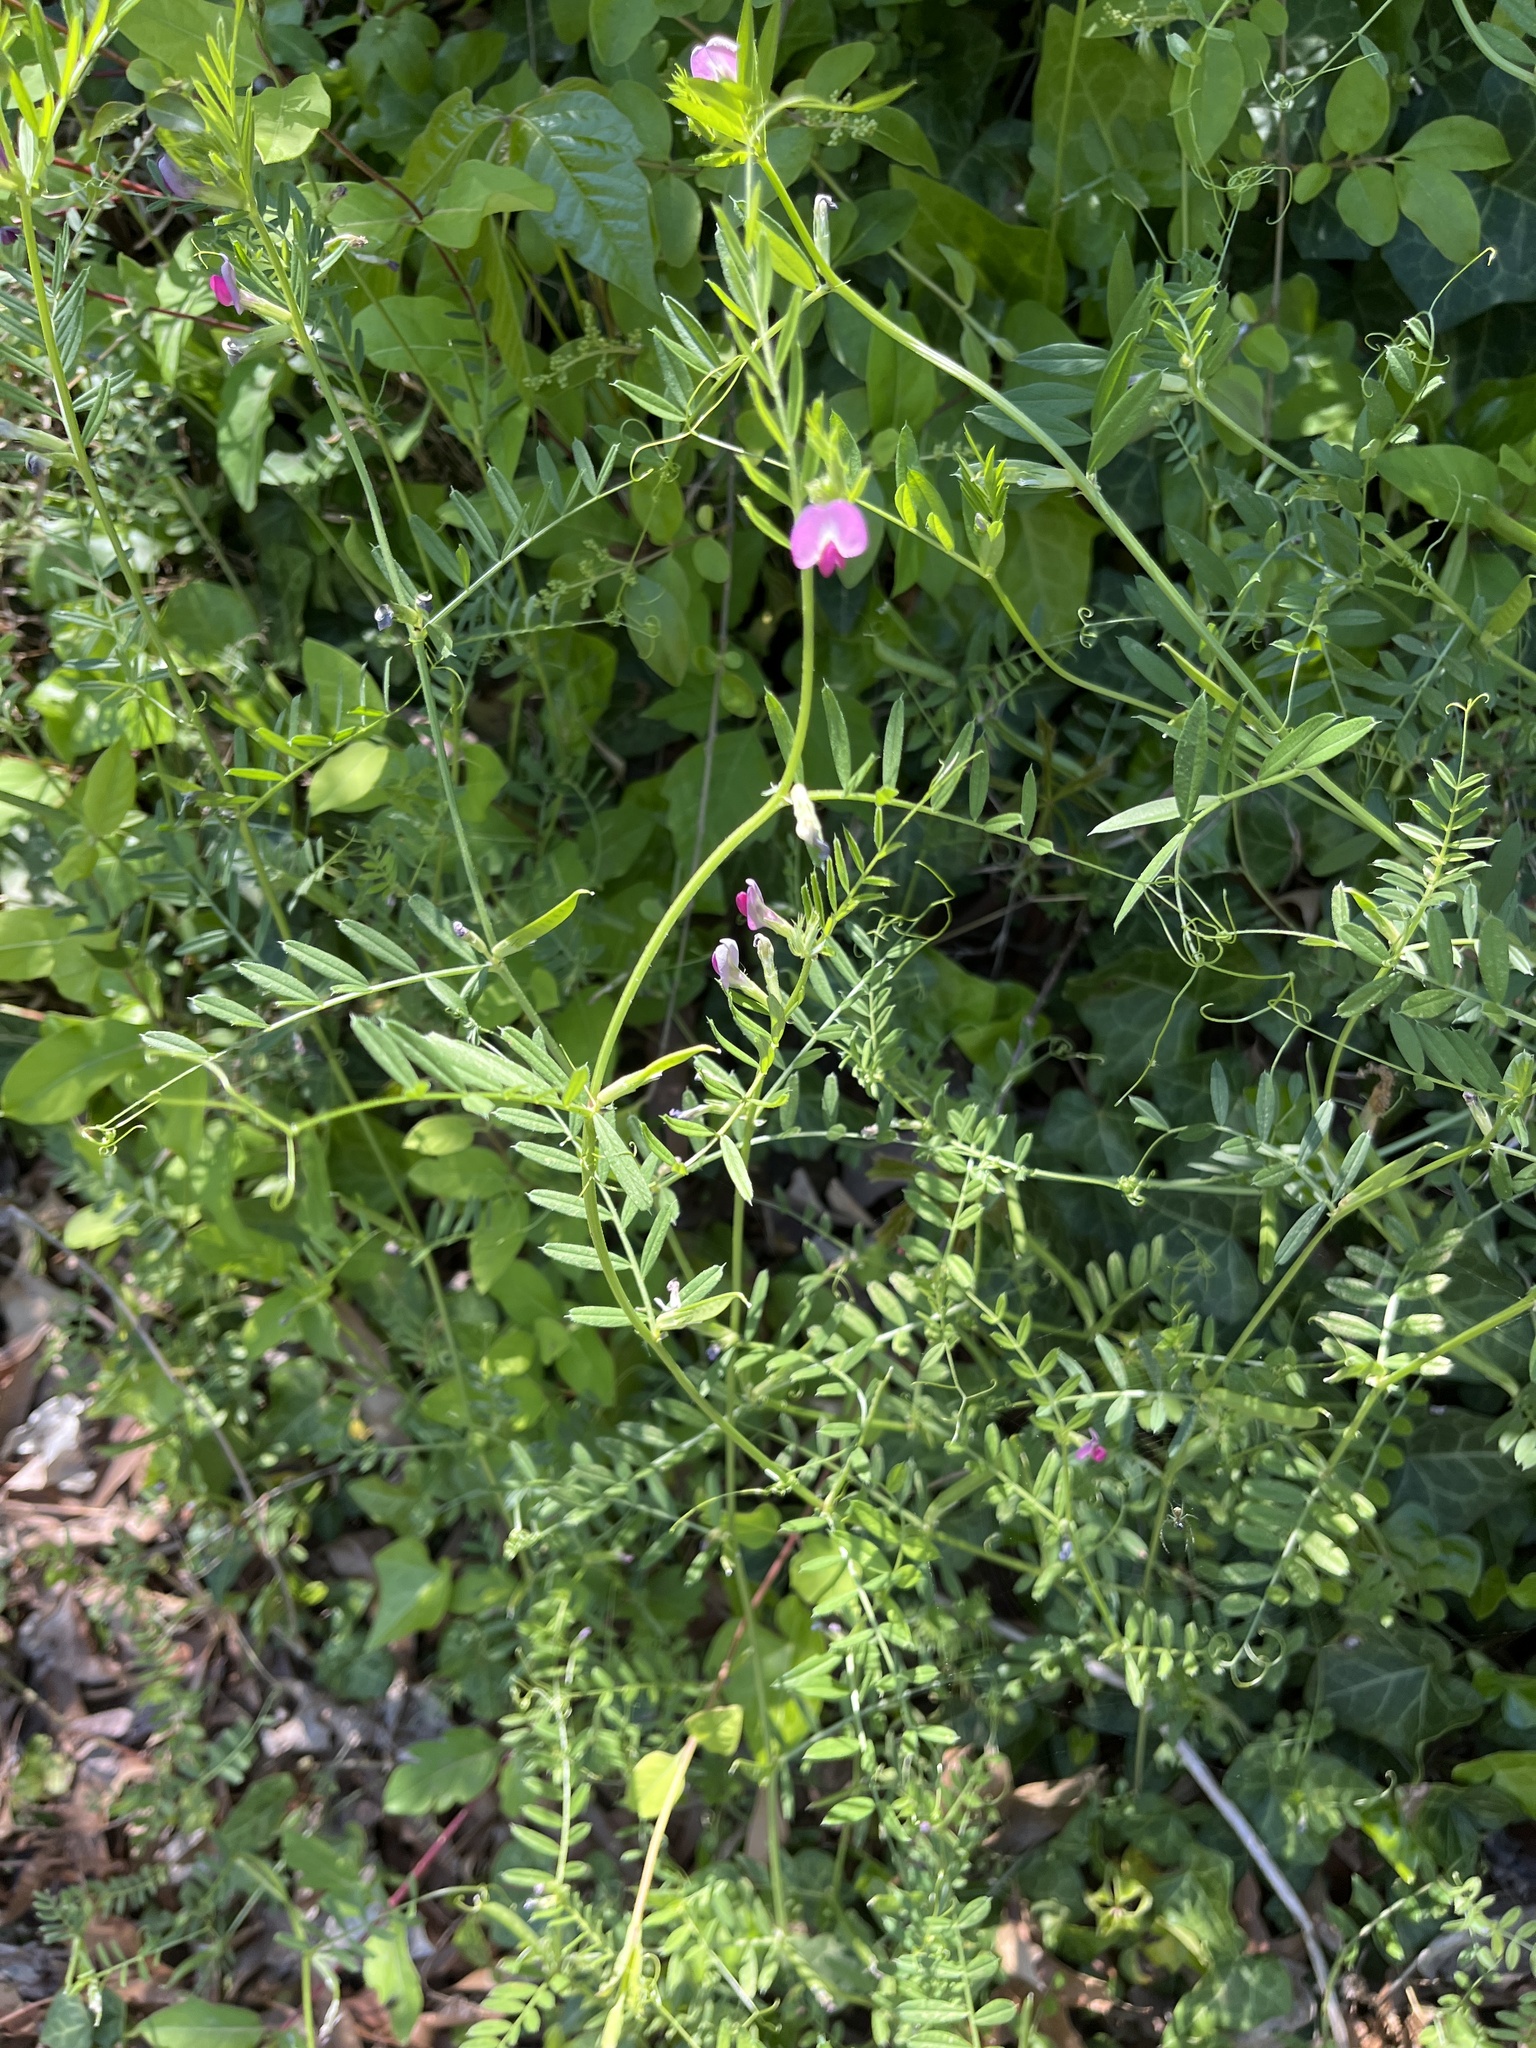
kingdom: Plantae
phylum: Tracheophyta
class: Magnoliopsida
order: Fabales
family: Fabaceae
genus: Vicia
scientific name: Vicia sativa
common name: Garden vetch
